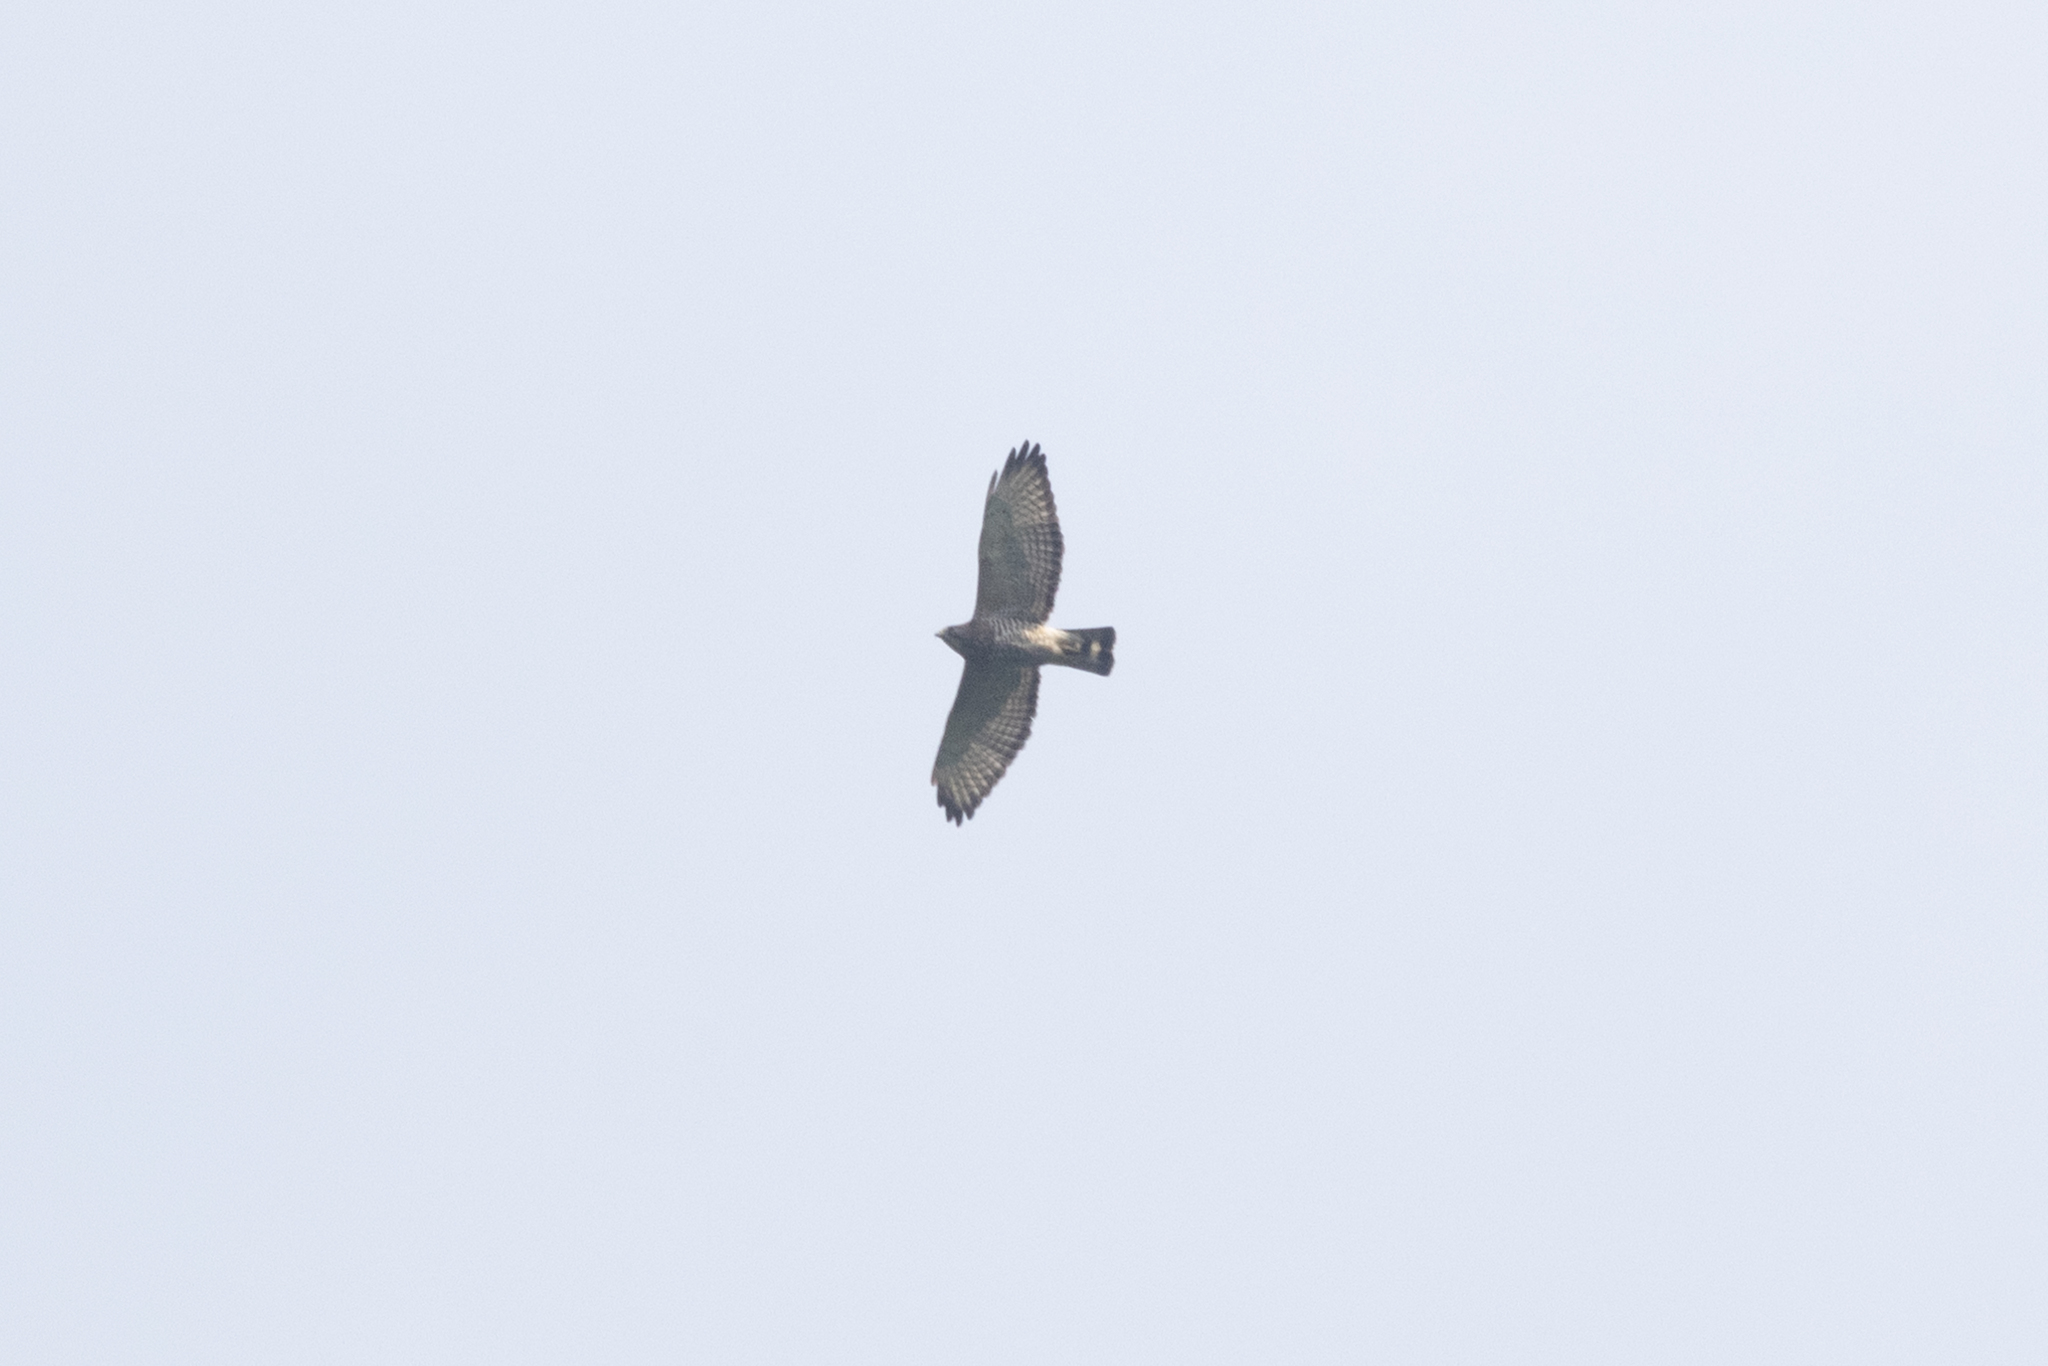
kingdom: Animalia
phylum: Chordata
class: Aves
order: Accipitriformes
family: Accipitridae
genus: Buteo
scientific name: Buteo platypterus
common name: Broad-winged hawk
